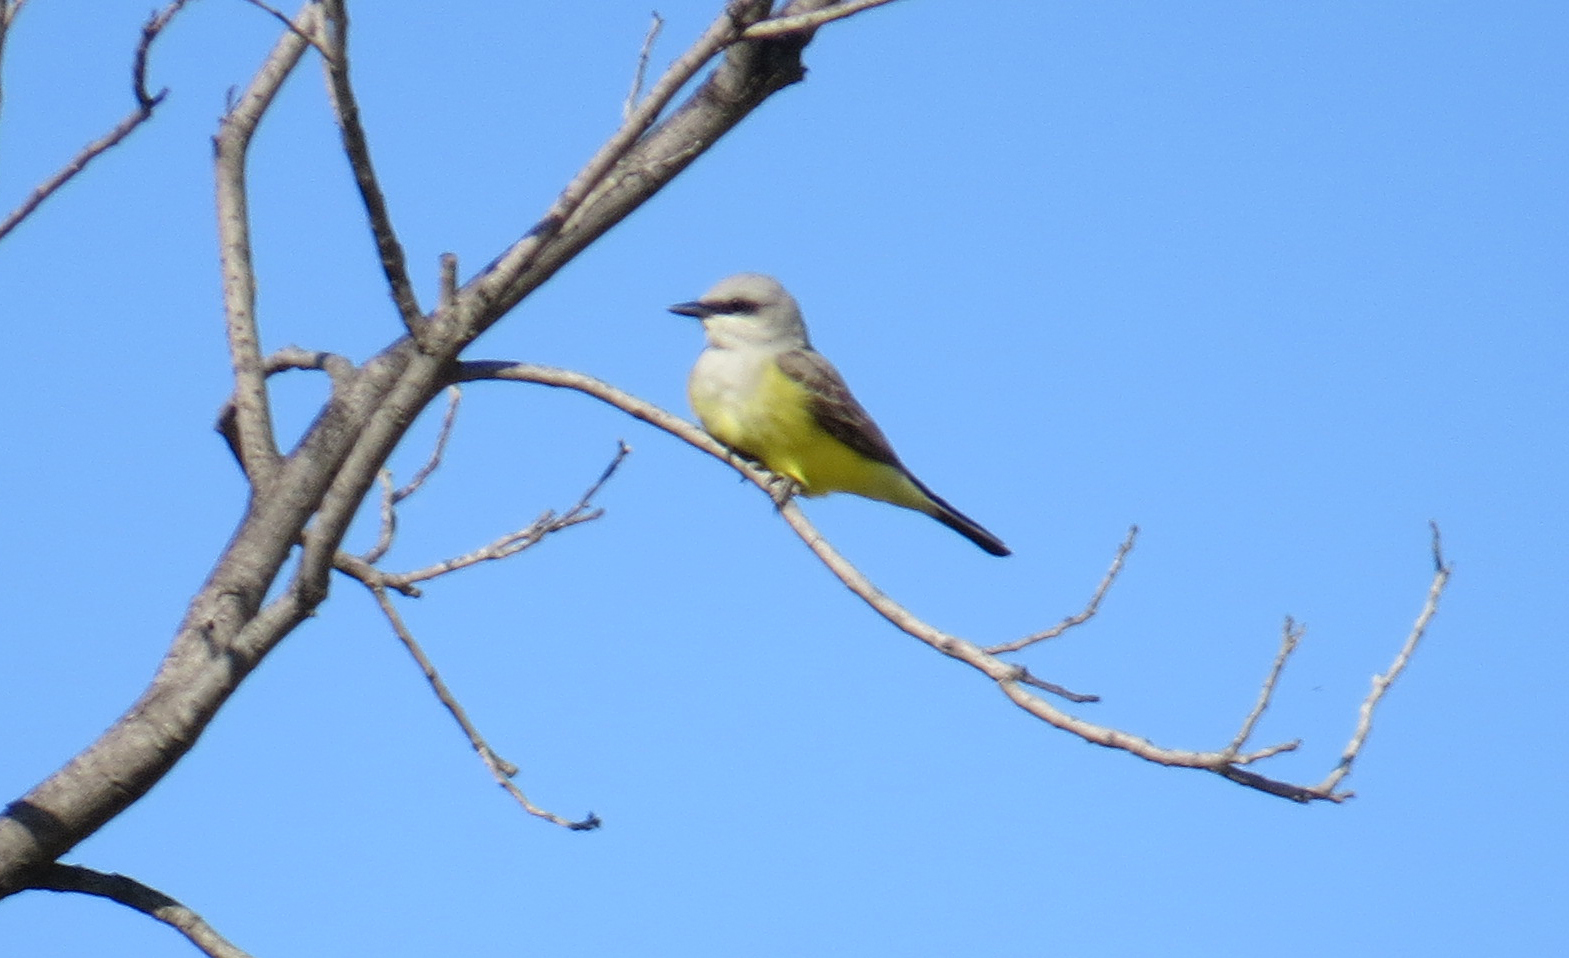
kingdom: Animalia
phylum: Chordata
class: Aves
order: Passeriformes
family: Tyrannidae
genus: Tyrannus
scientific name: Tyrannus verticalis
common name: Western kingbird
